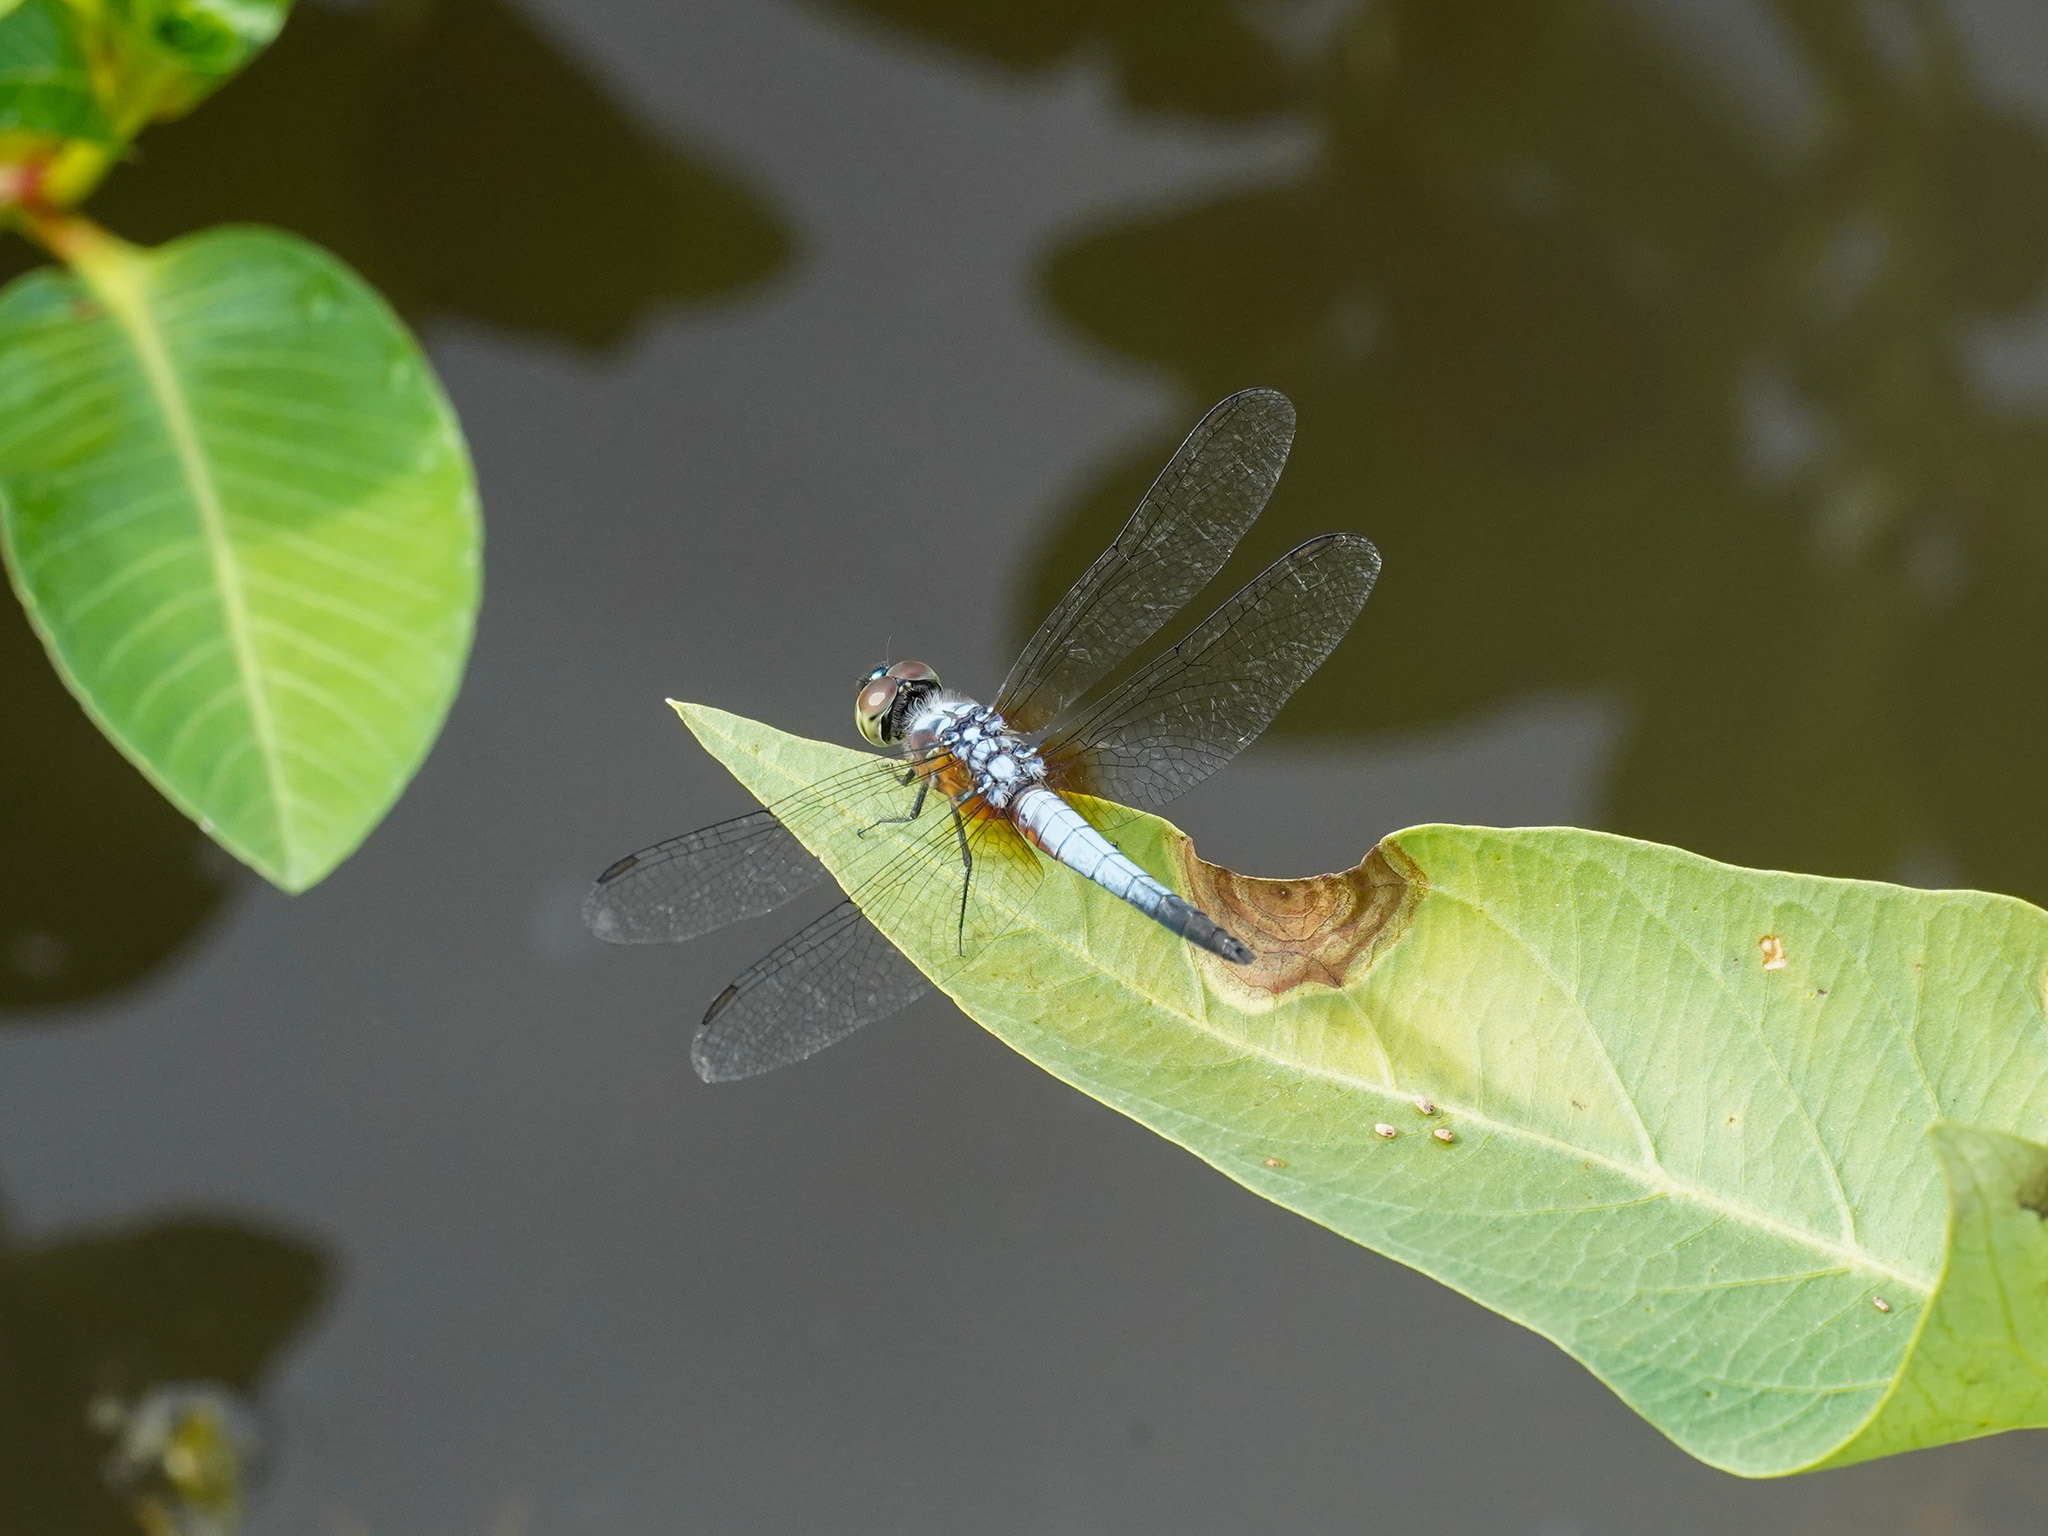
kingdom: Animalia
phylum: Arthropoda
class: Insecta
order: Odonata
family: Libellulidae
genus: Brachydiplax
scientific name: Brachydiplax chalybea
